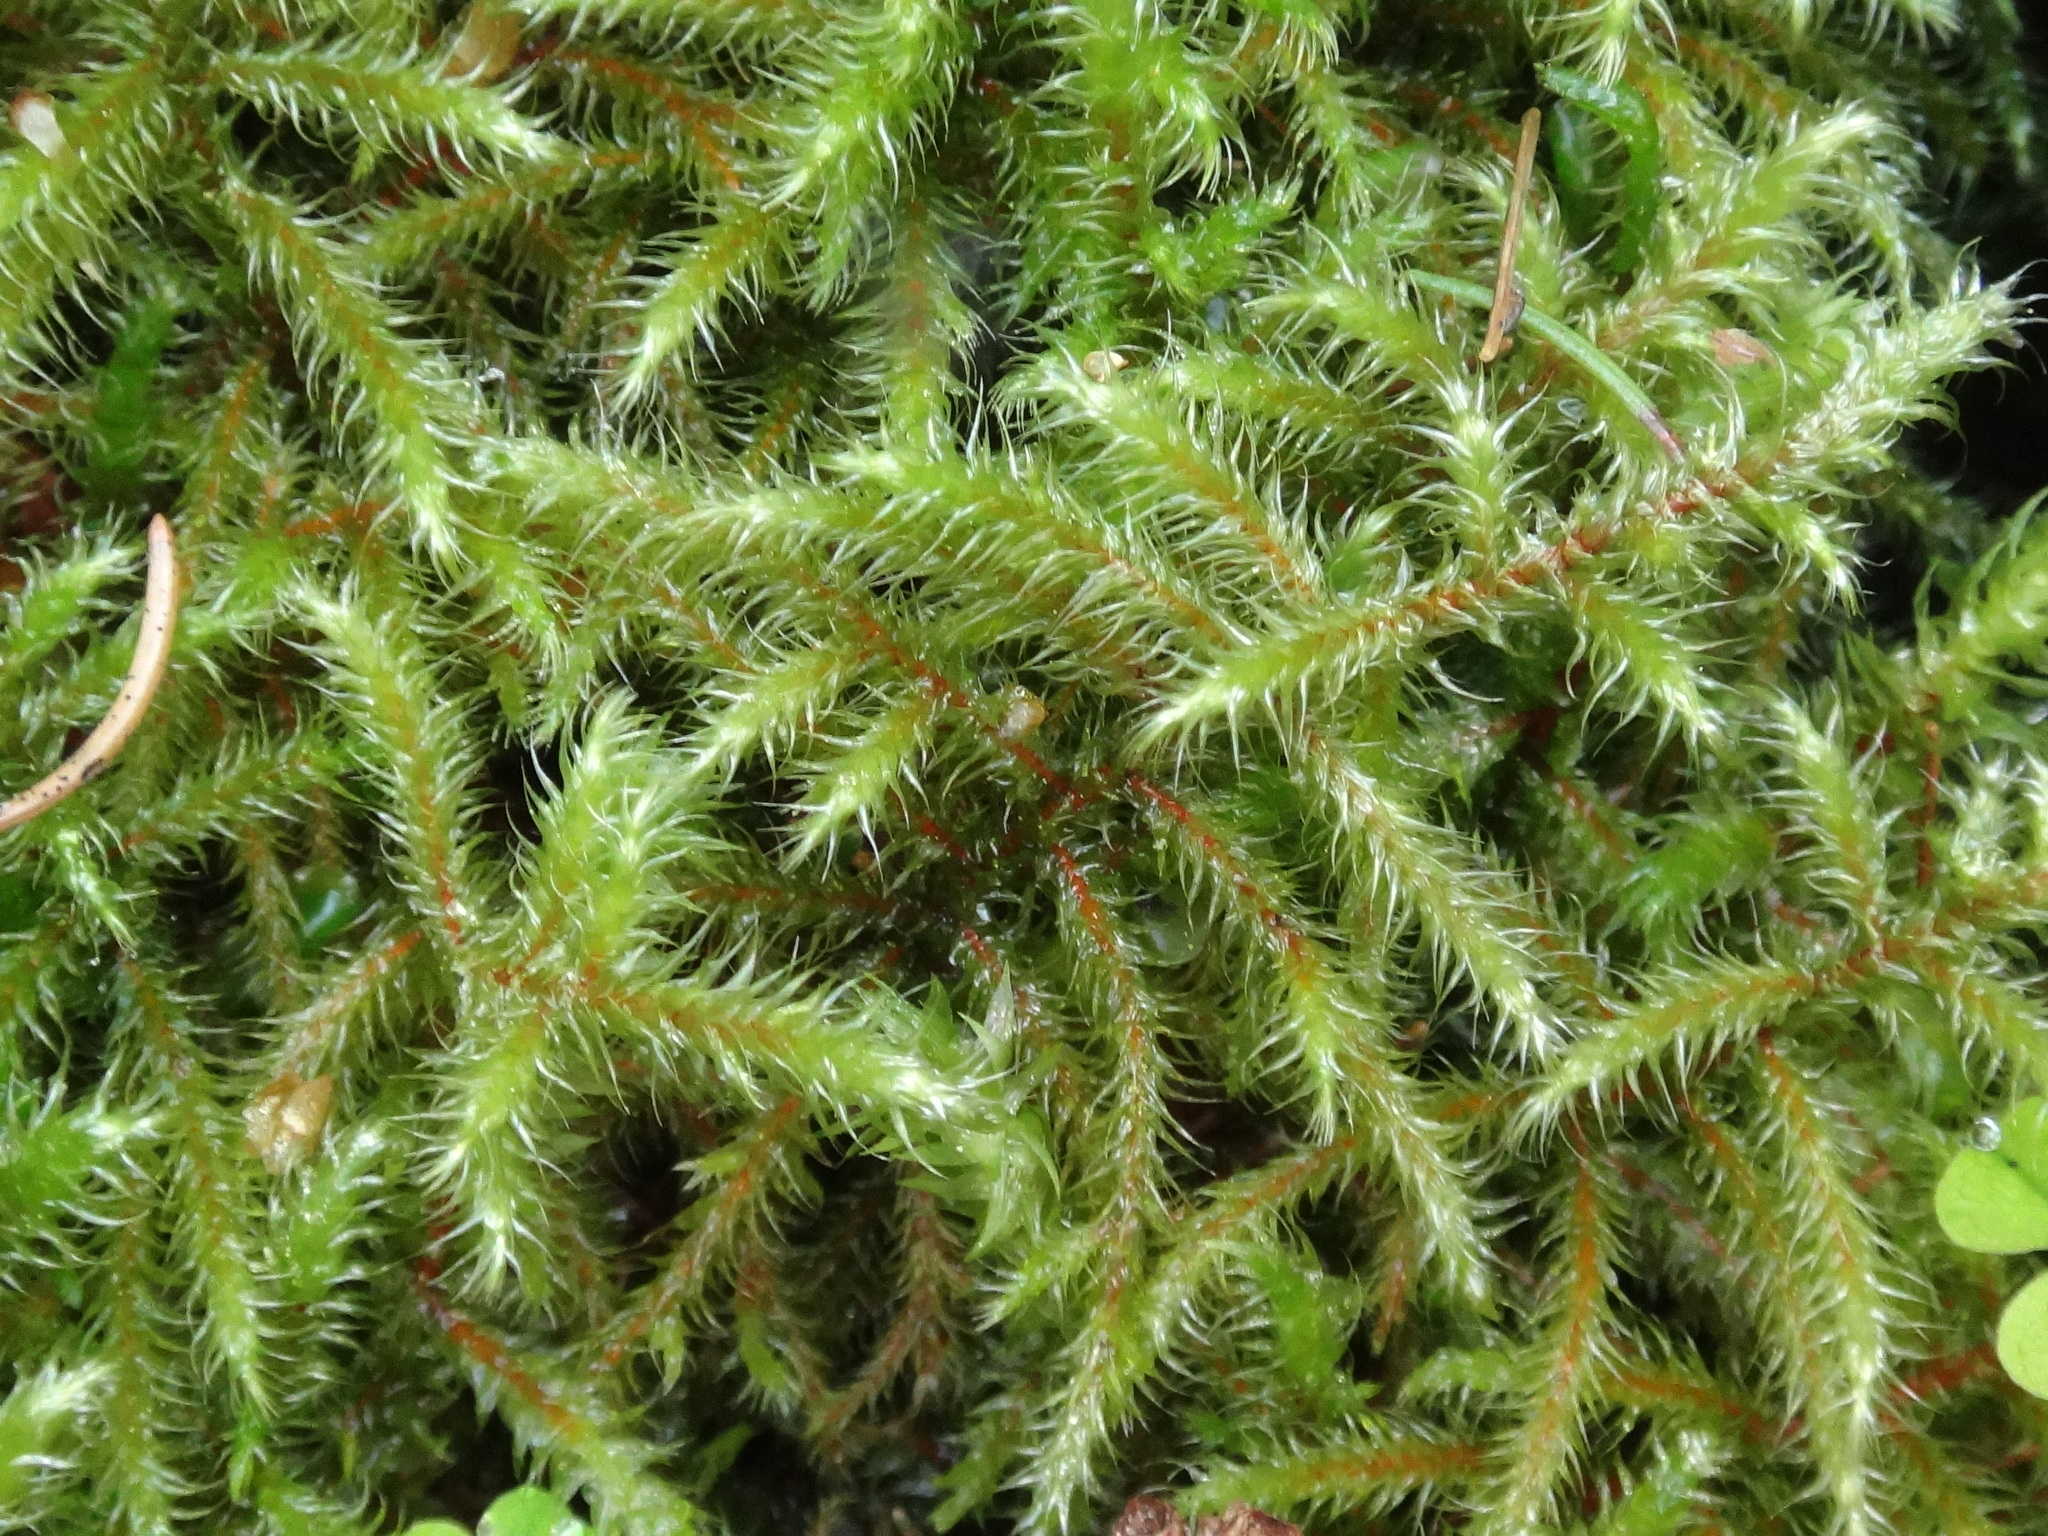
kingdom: Plantae
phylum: Bryophyta
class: Bryopsida
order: Hypnales
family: Hylocomiaceae
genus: Rhytidiadelphus
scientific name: Rhytidiadelphus loreus
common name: Lanky moss
